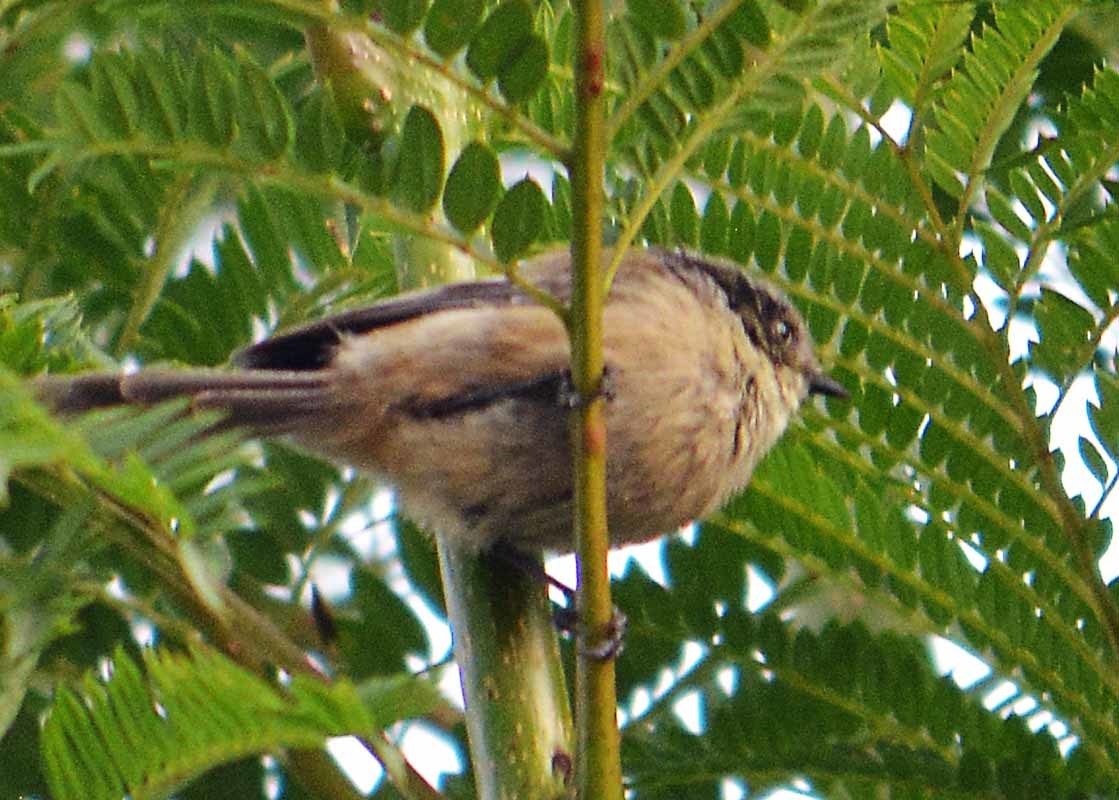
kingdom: Animalia
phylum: Chordata
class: Aves
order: Passeriformes
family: Aegithalidae
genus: Psaltriparus
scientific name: Psaltriparus minimus
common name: American bushtit
